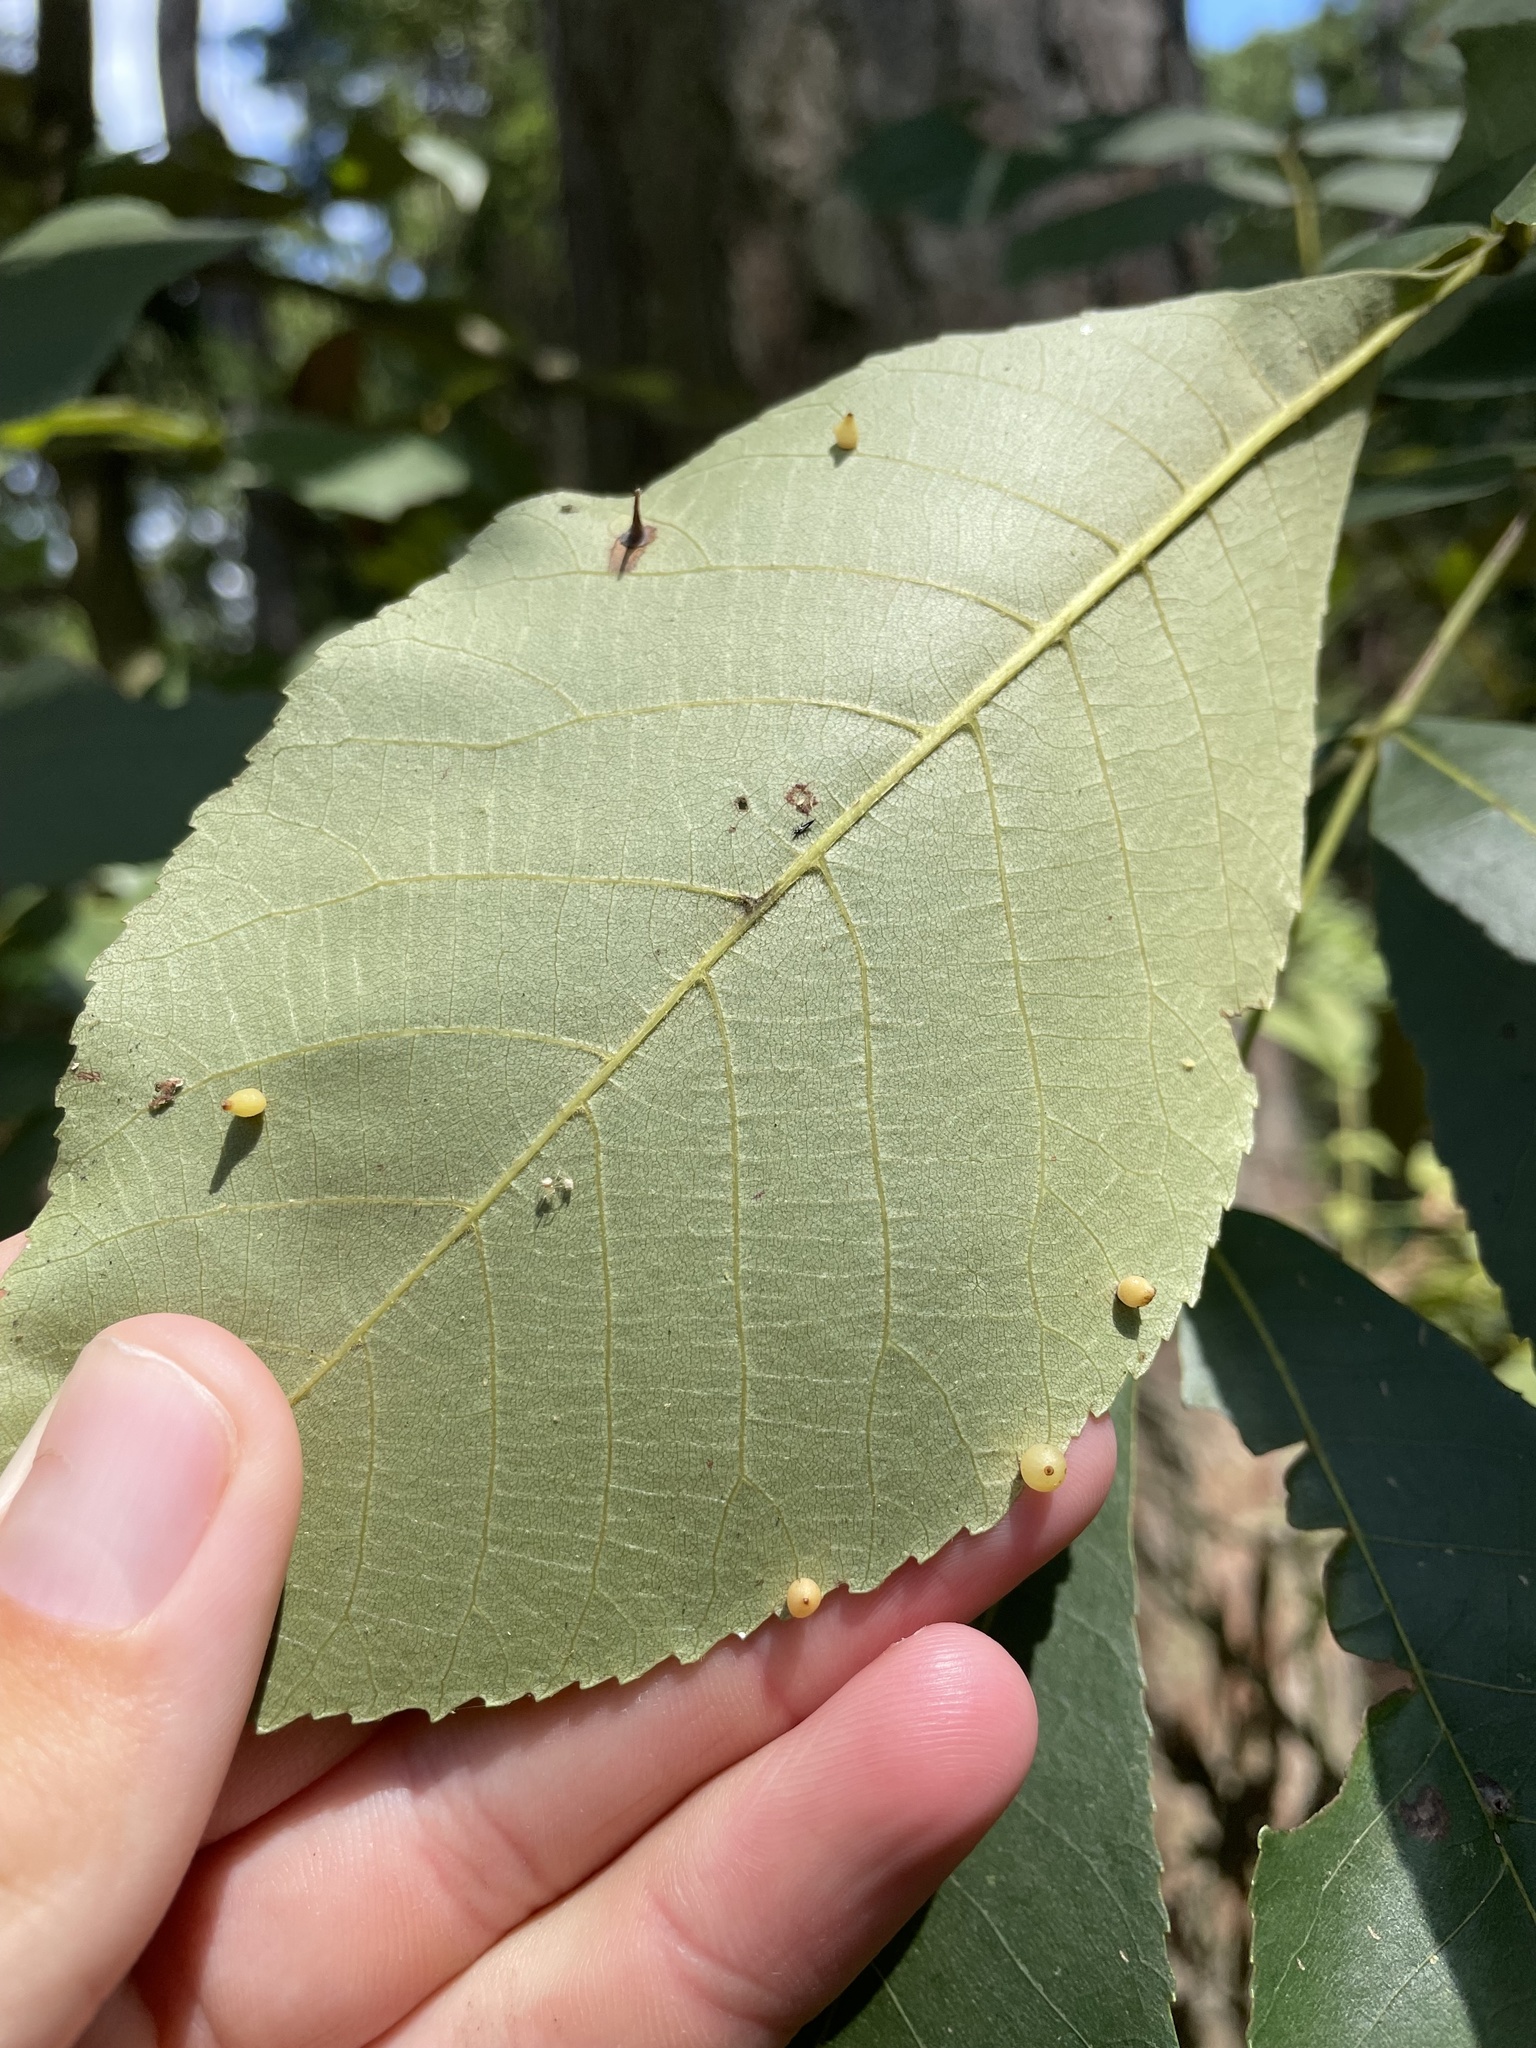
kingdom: Animalia
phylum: Arthropoda
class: Insecta
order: Diptera
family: Cecidomyiidae
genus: Caryomyia
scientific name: Caryomyia leviglobus
